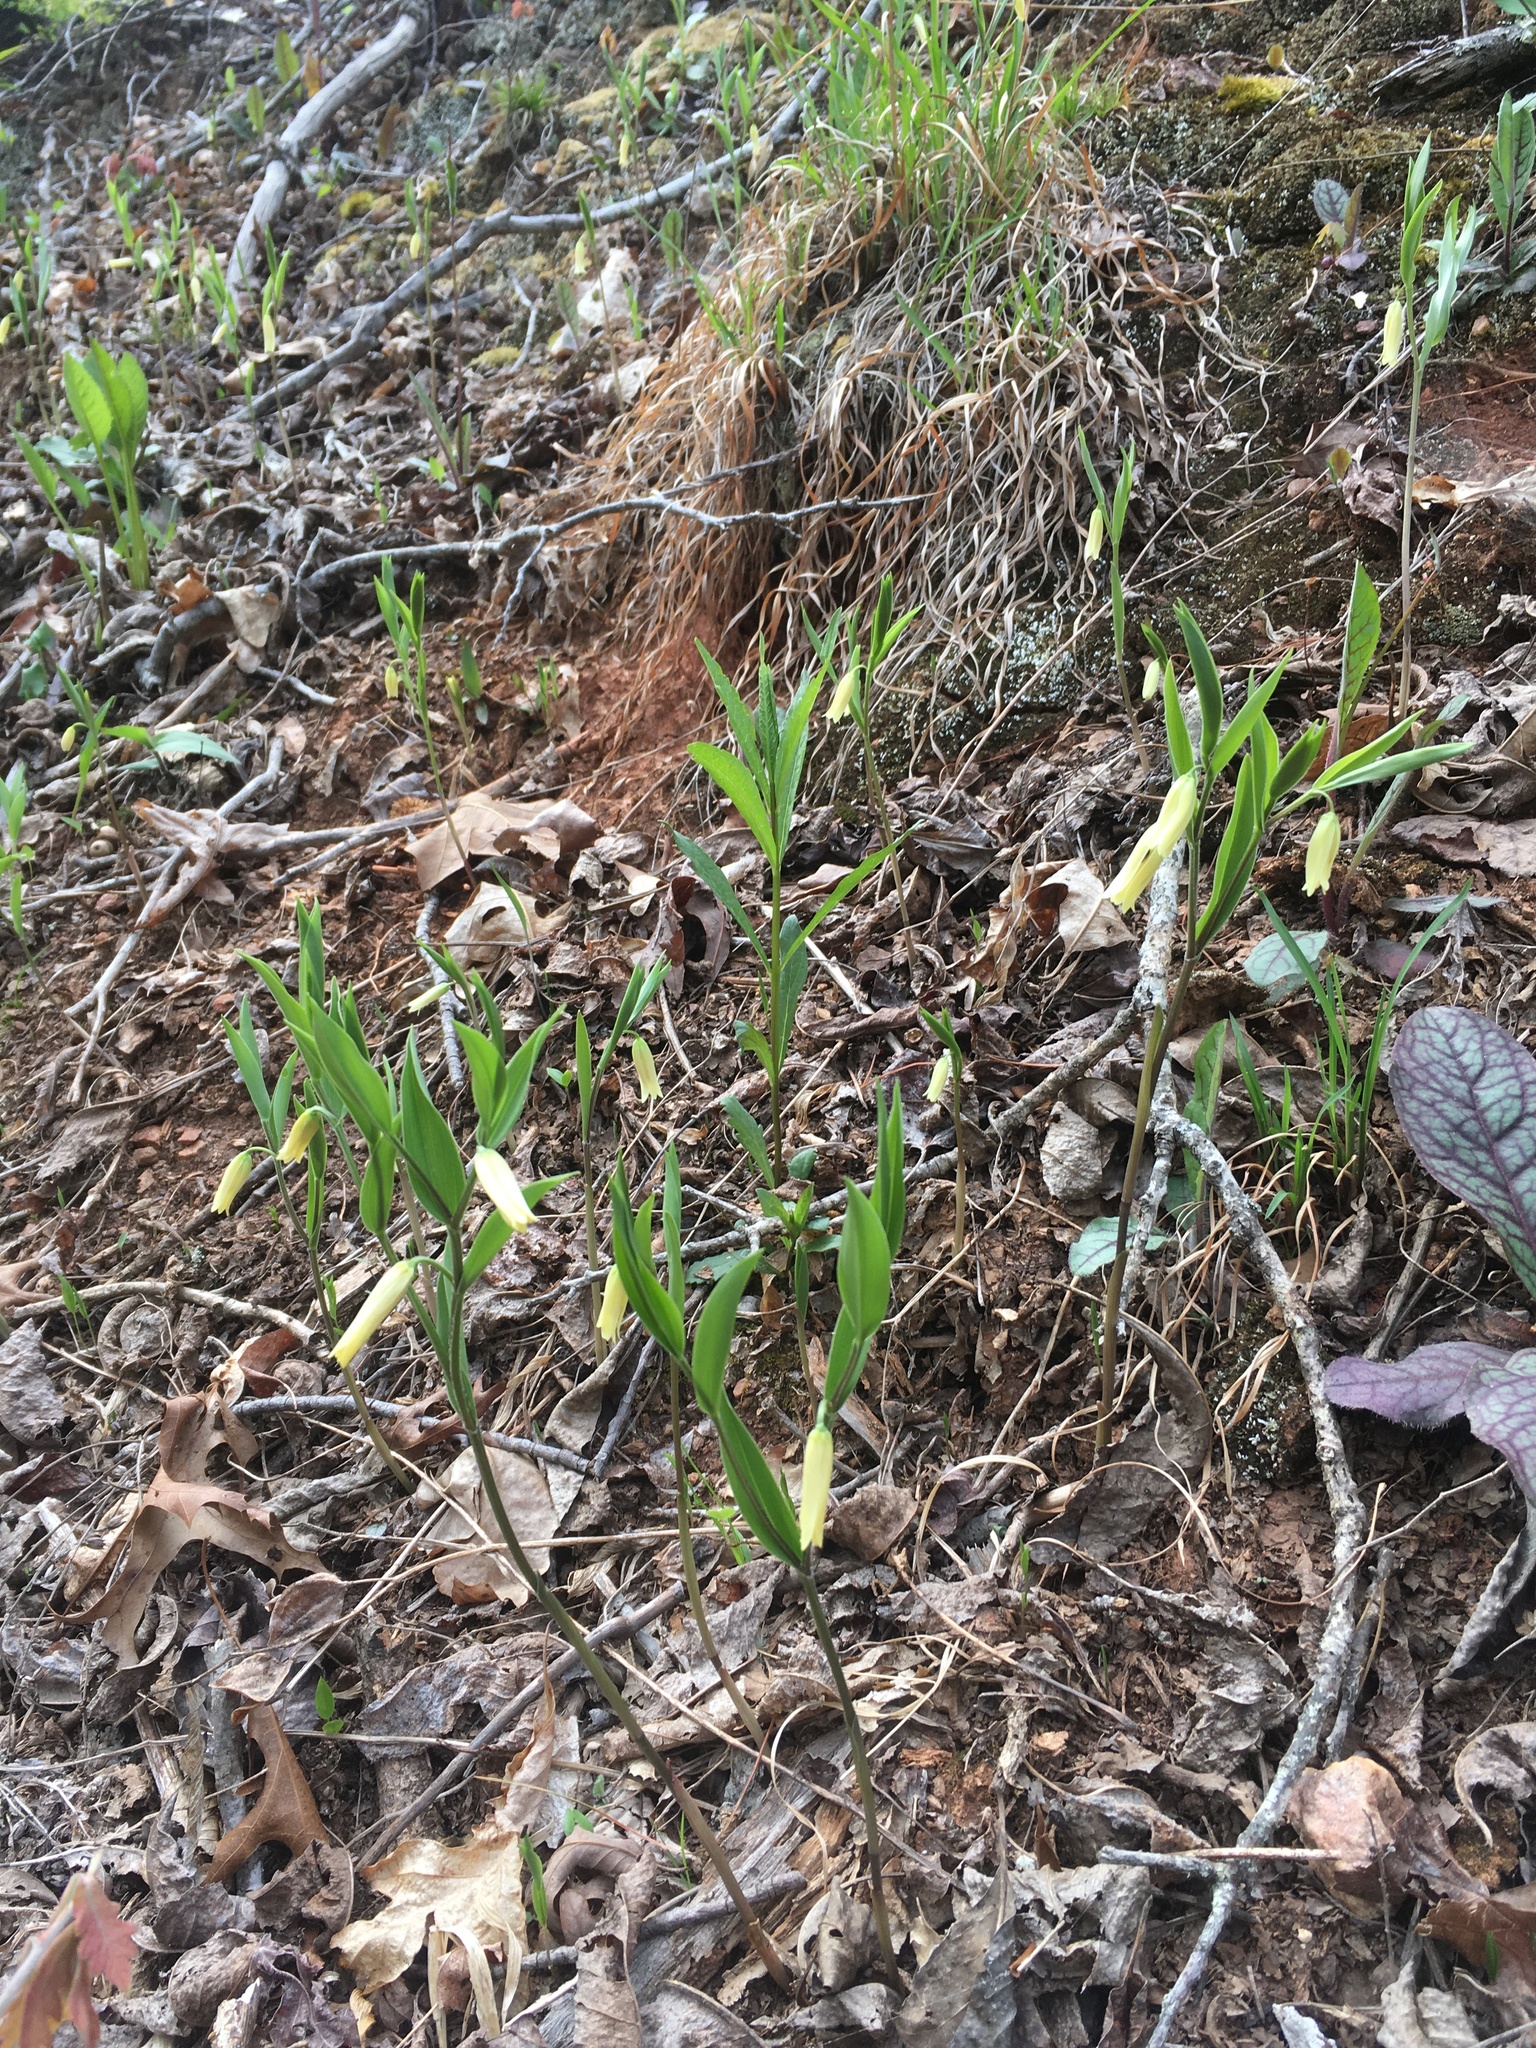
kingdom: Plantae
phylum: Tracheophyta
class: Liliopsida
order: Liliales
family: Colchicaceae
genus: Uvularia
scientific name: Uvularia puberula
